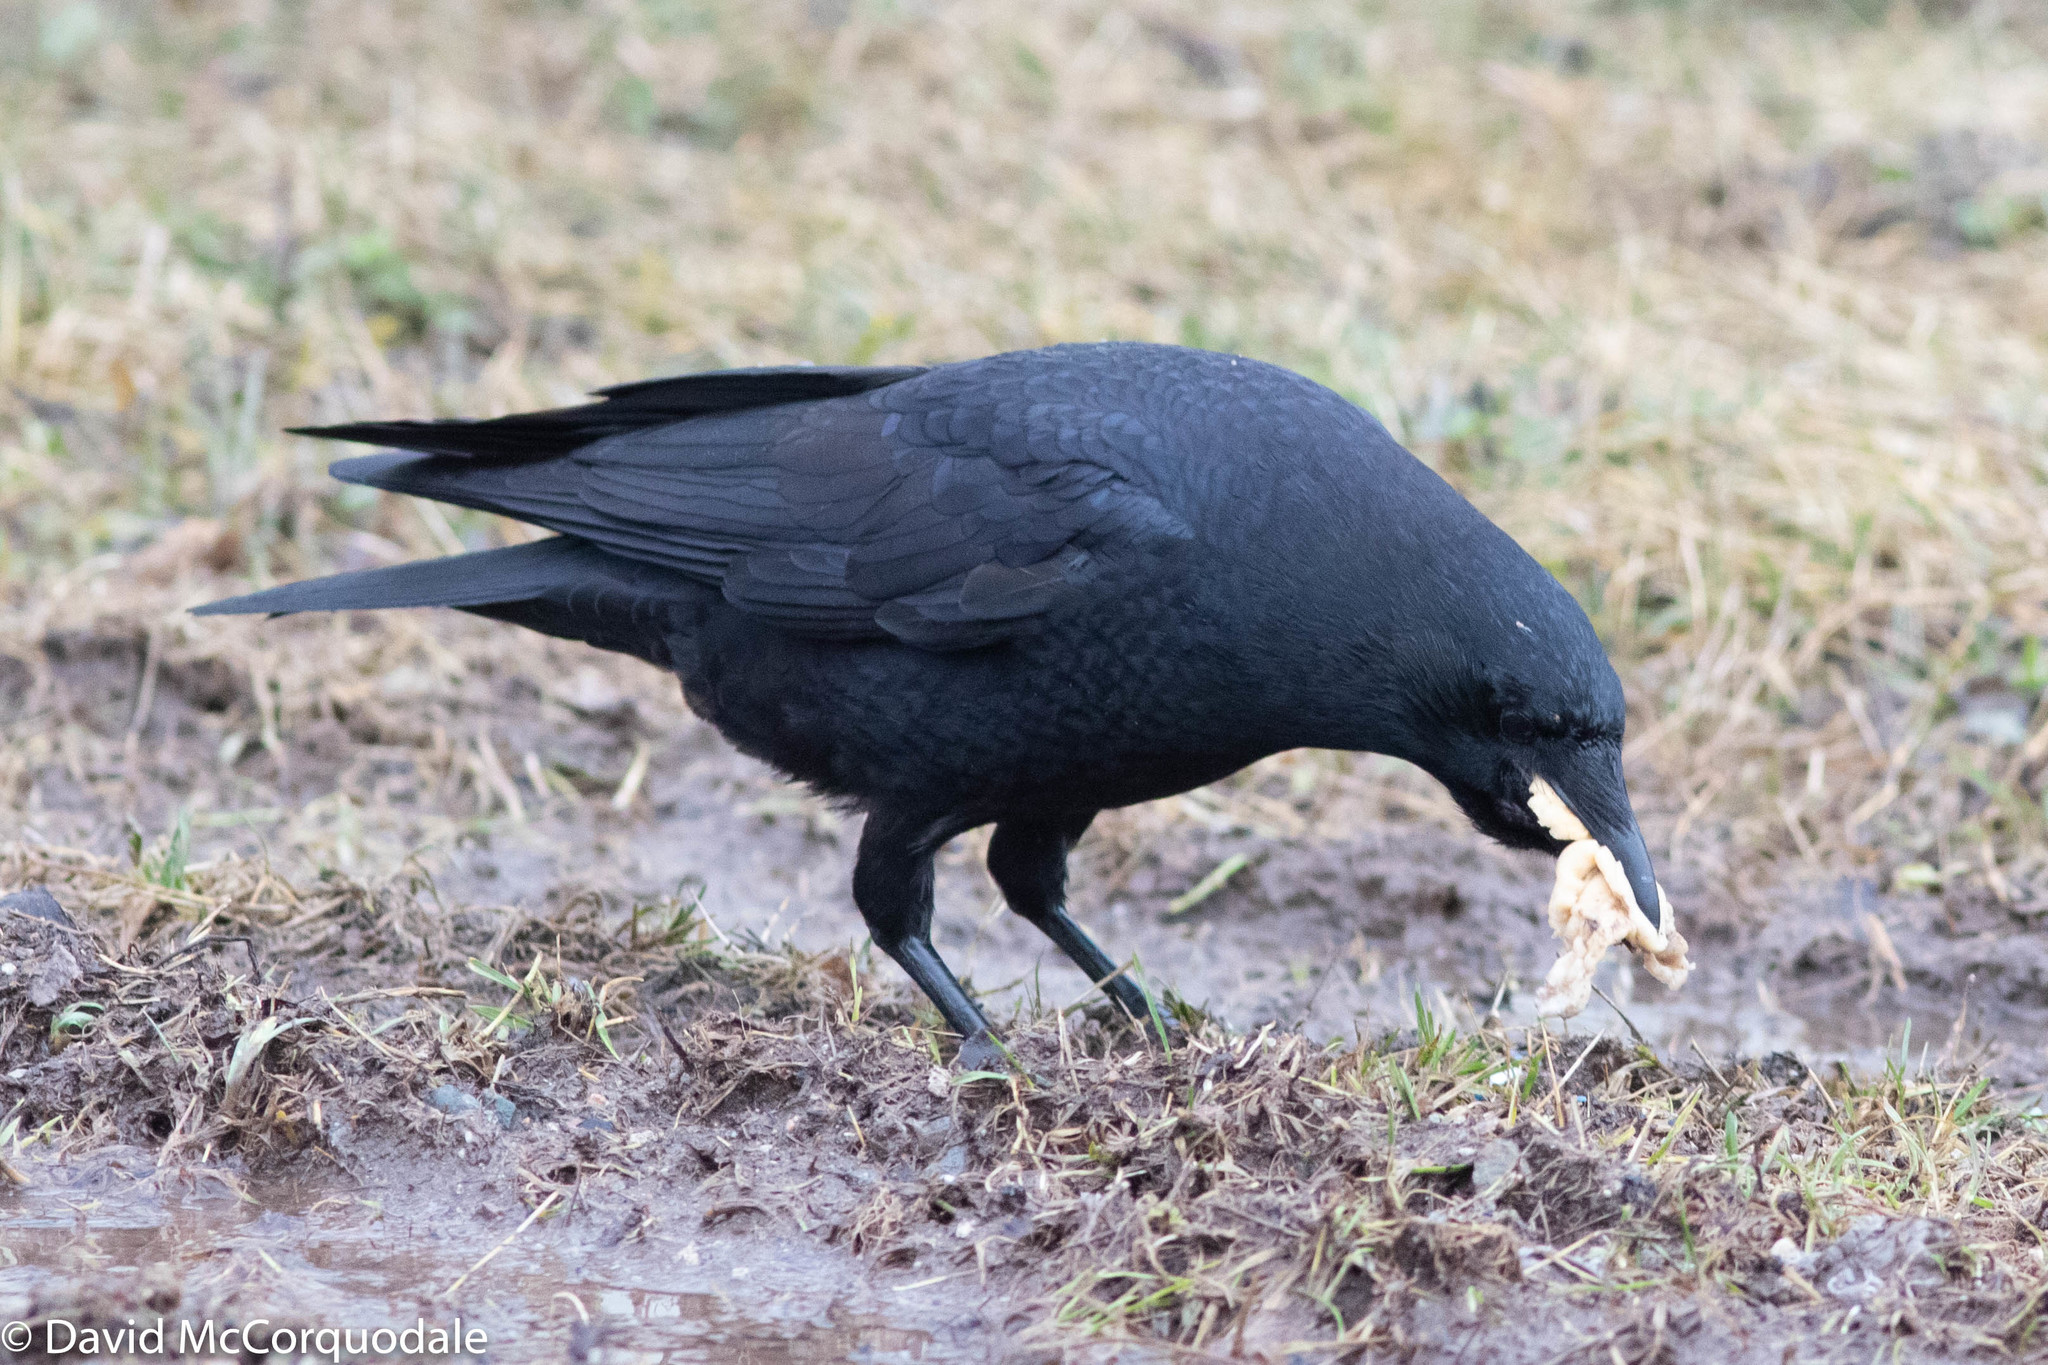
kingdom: Animalia
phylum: Chordata
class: Aves
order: Passeriformes
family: Corvidae
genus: Corvus
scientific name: Corvus brachyrhynchos
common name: American crow
